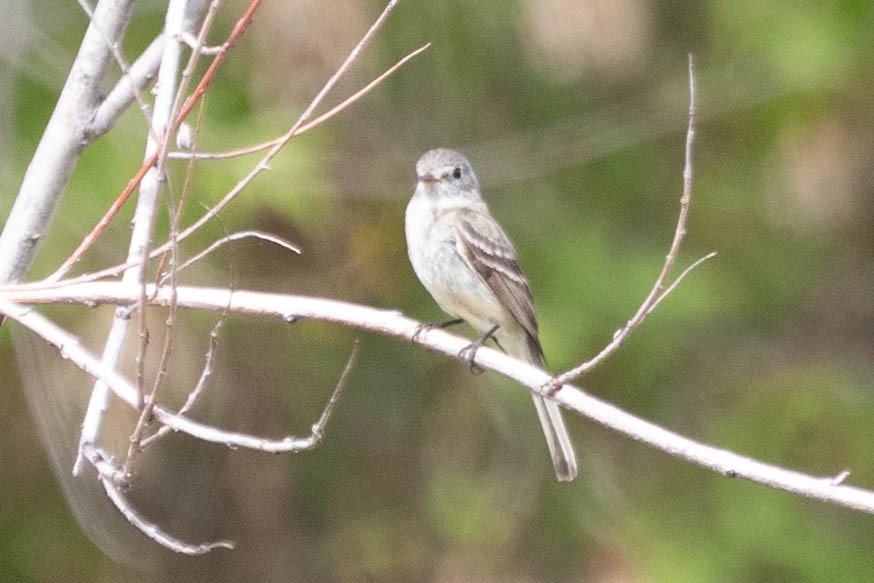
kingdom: Animalia
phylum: Chordata
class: Aves
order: Passeriformes
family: Tyrannidae
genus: Empidonax
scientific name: Empidonax oberholseri
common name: Dusky flycatcher
